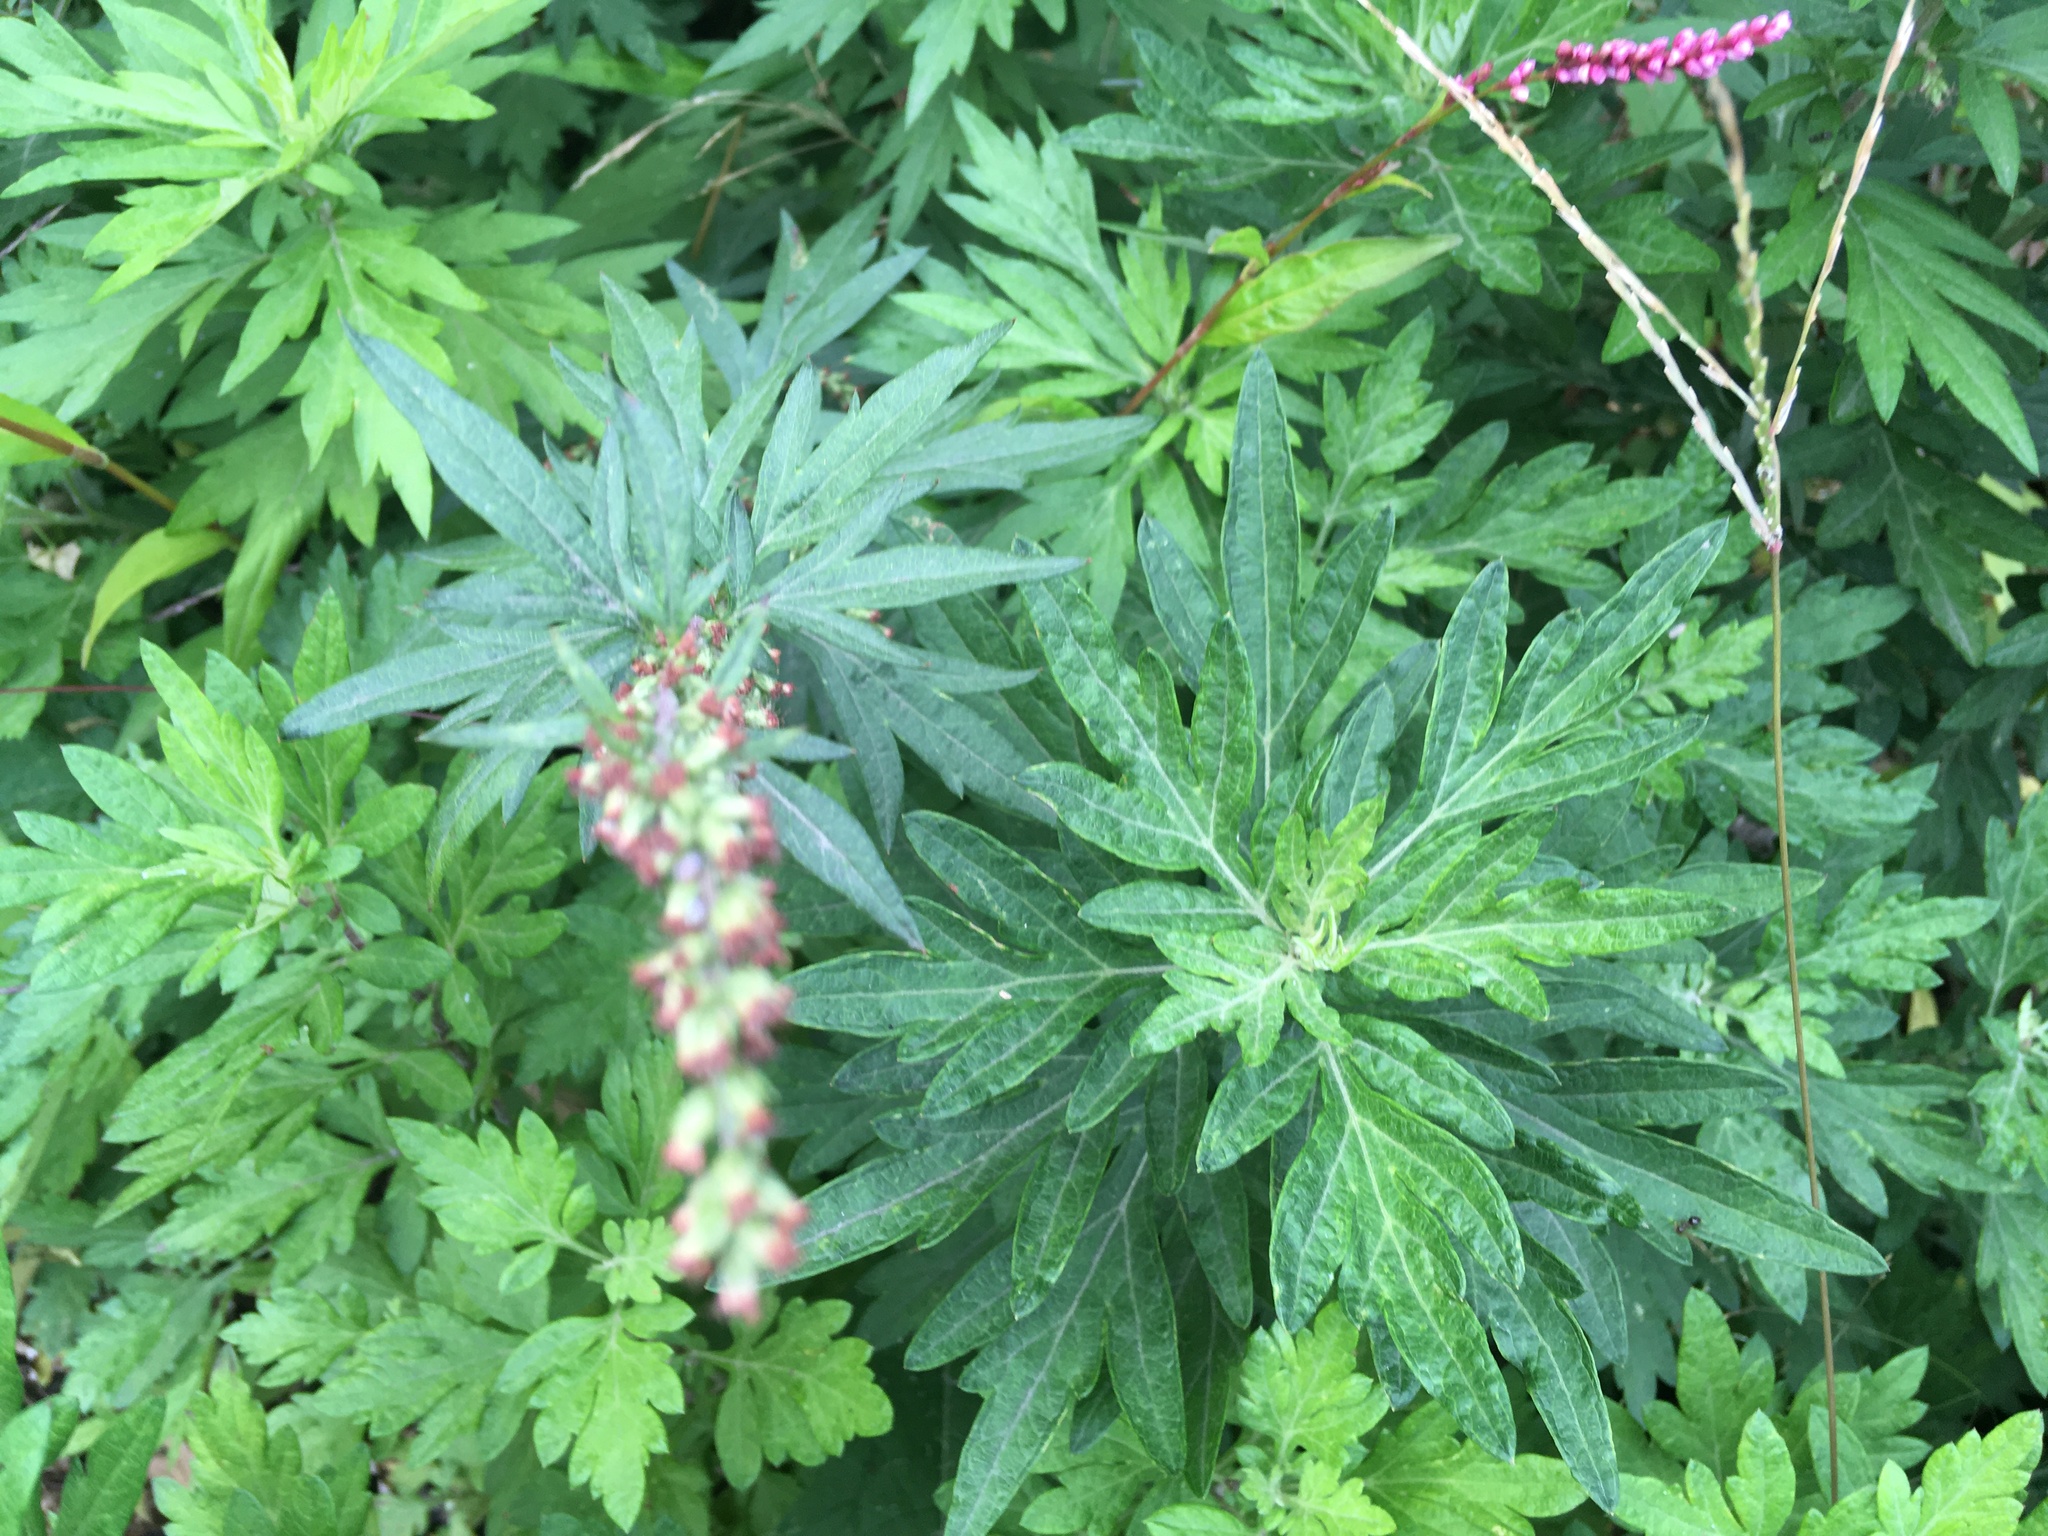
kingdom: Plantae
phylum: Tracheophyta
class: Magnoliopsida
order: Asterales
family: Asteraceae
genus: Artemisia
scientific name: Artemisia vulgaris
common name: Mugwort
